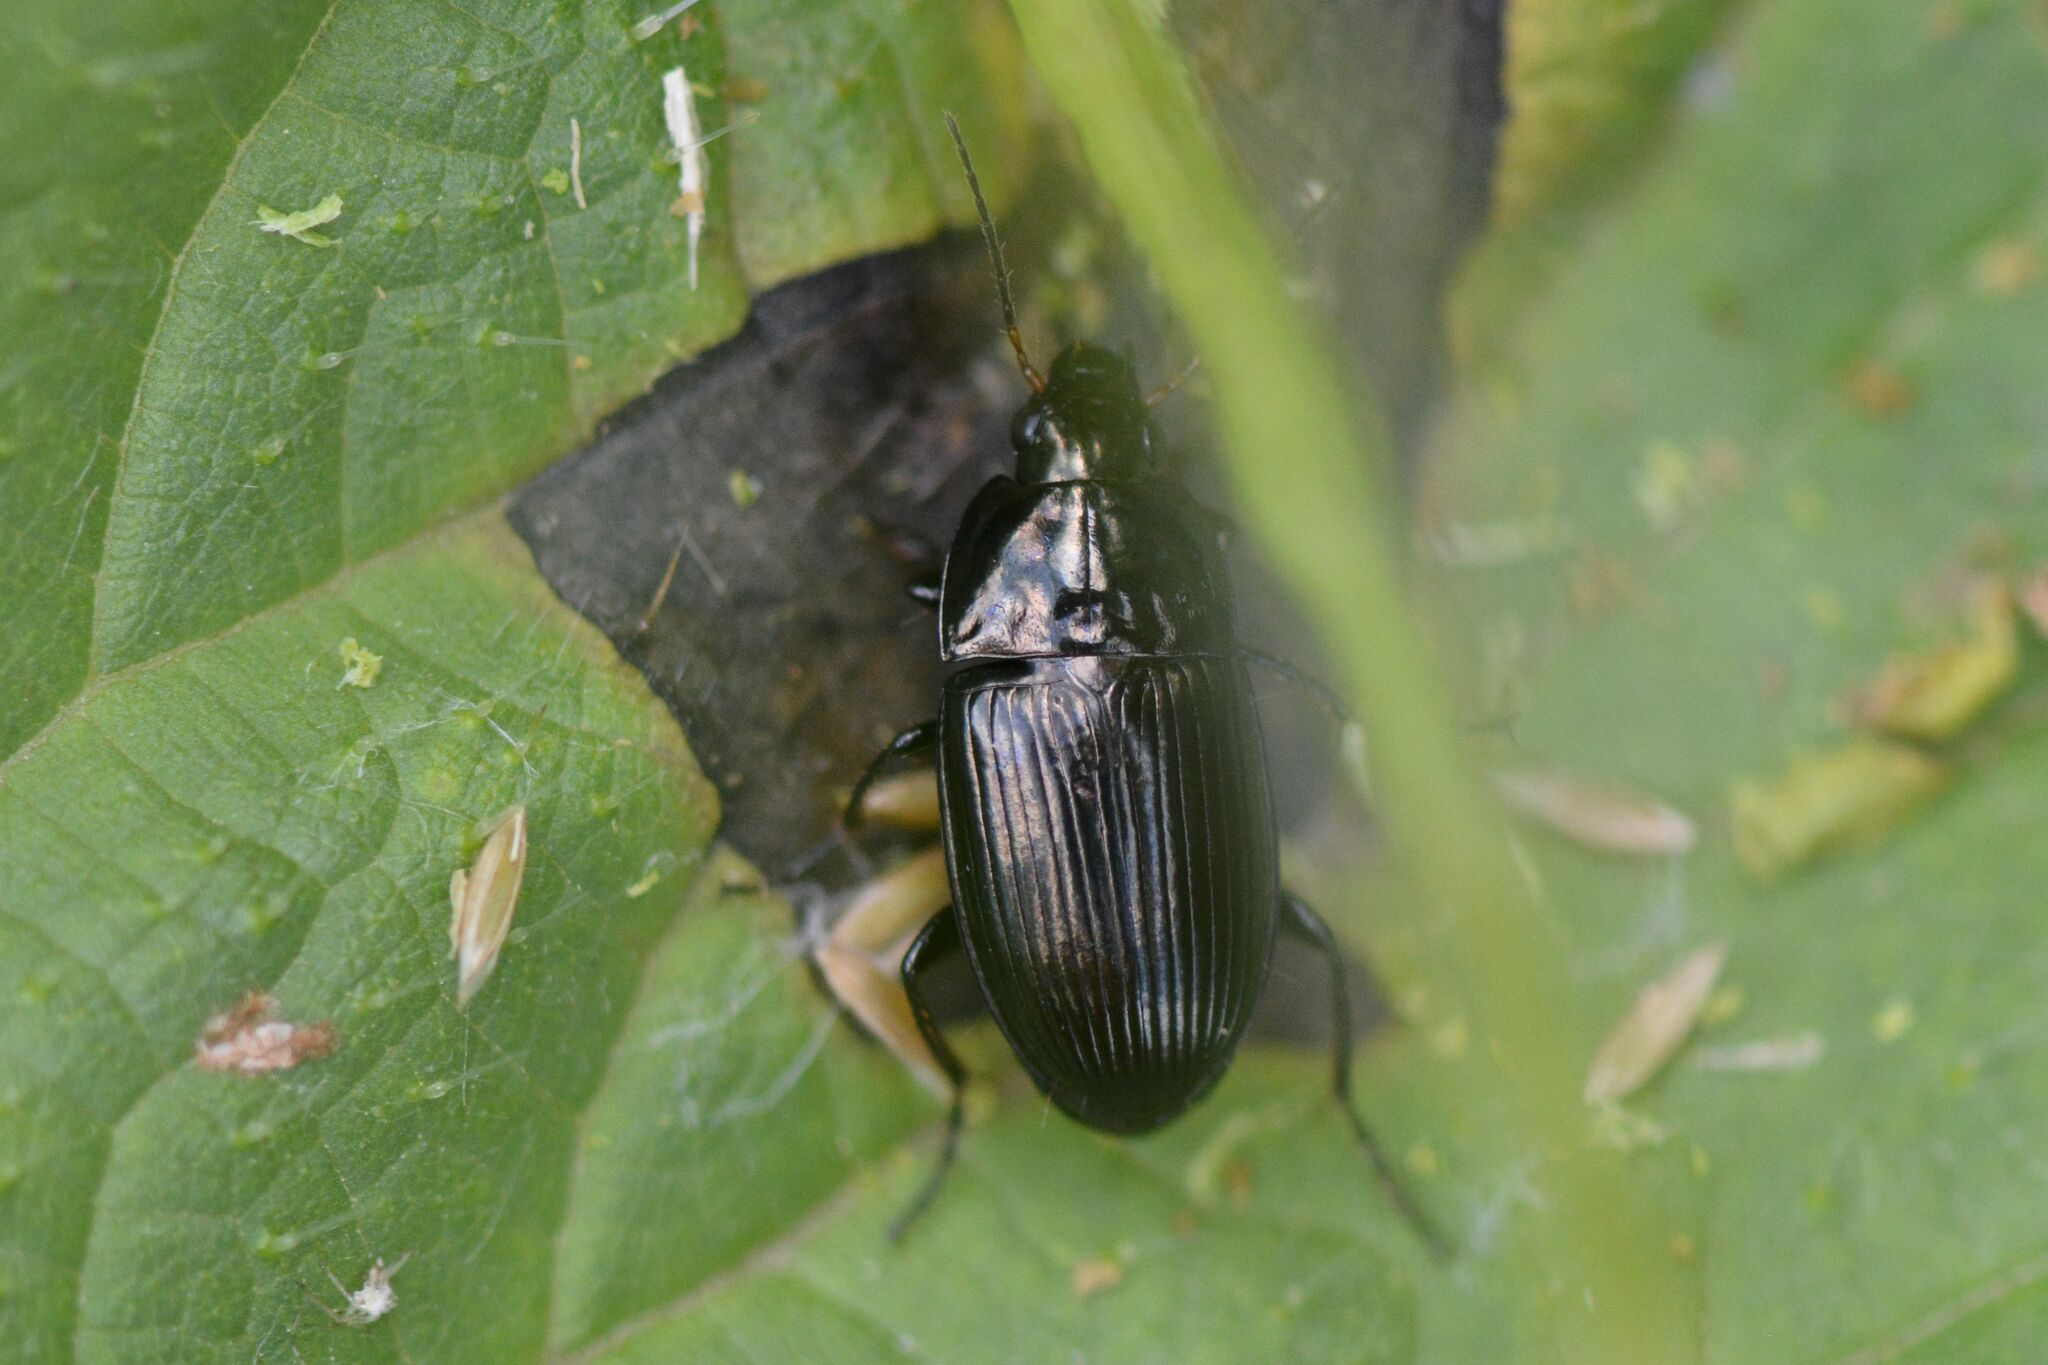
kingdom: Animalia
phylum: Arthropoda
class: Insecta
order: Coleoptera
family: Carabidae
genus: Amara
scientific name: Amara ovata
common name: Ovate harp ground beetle
